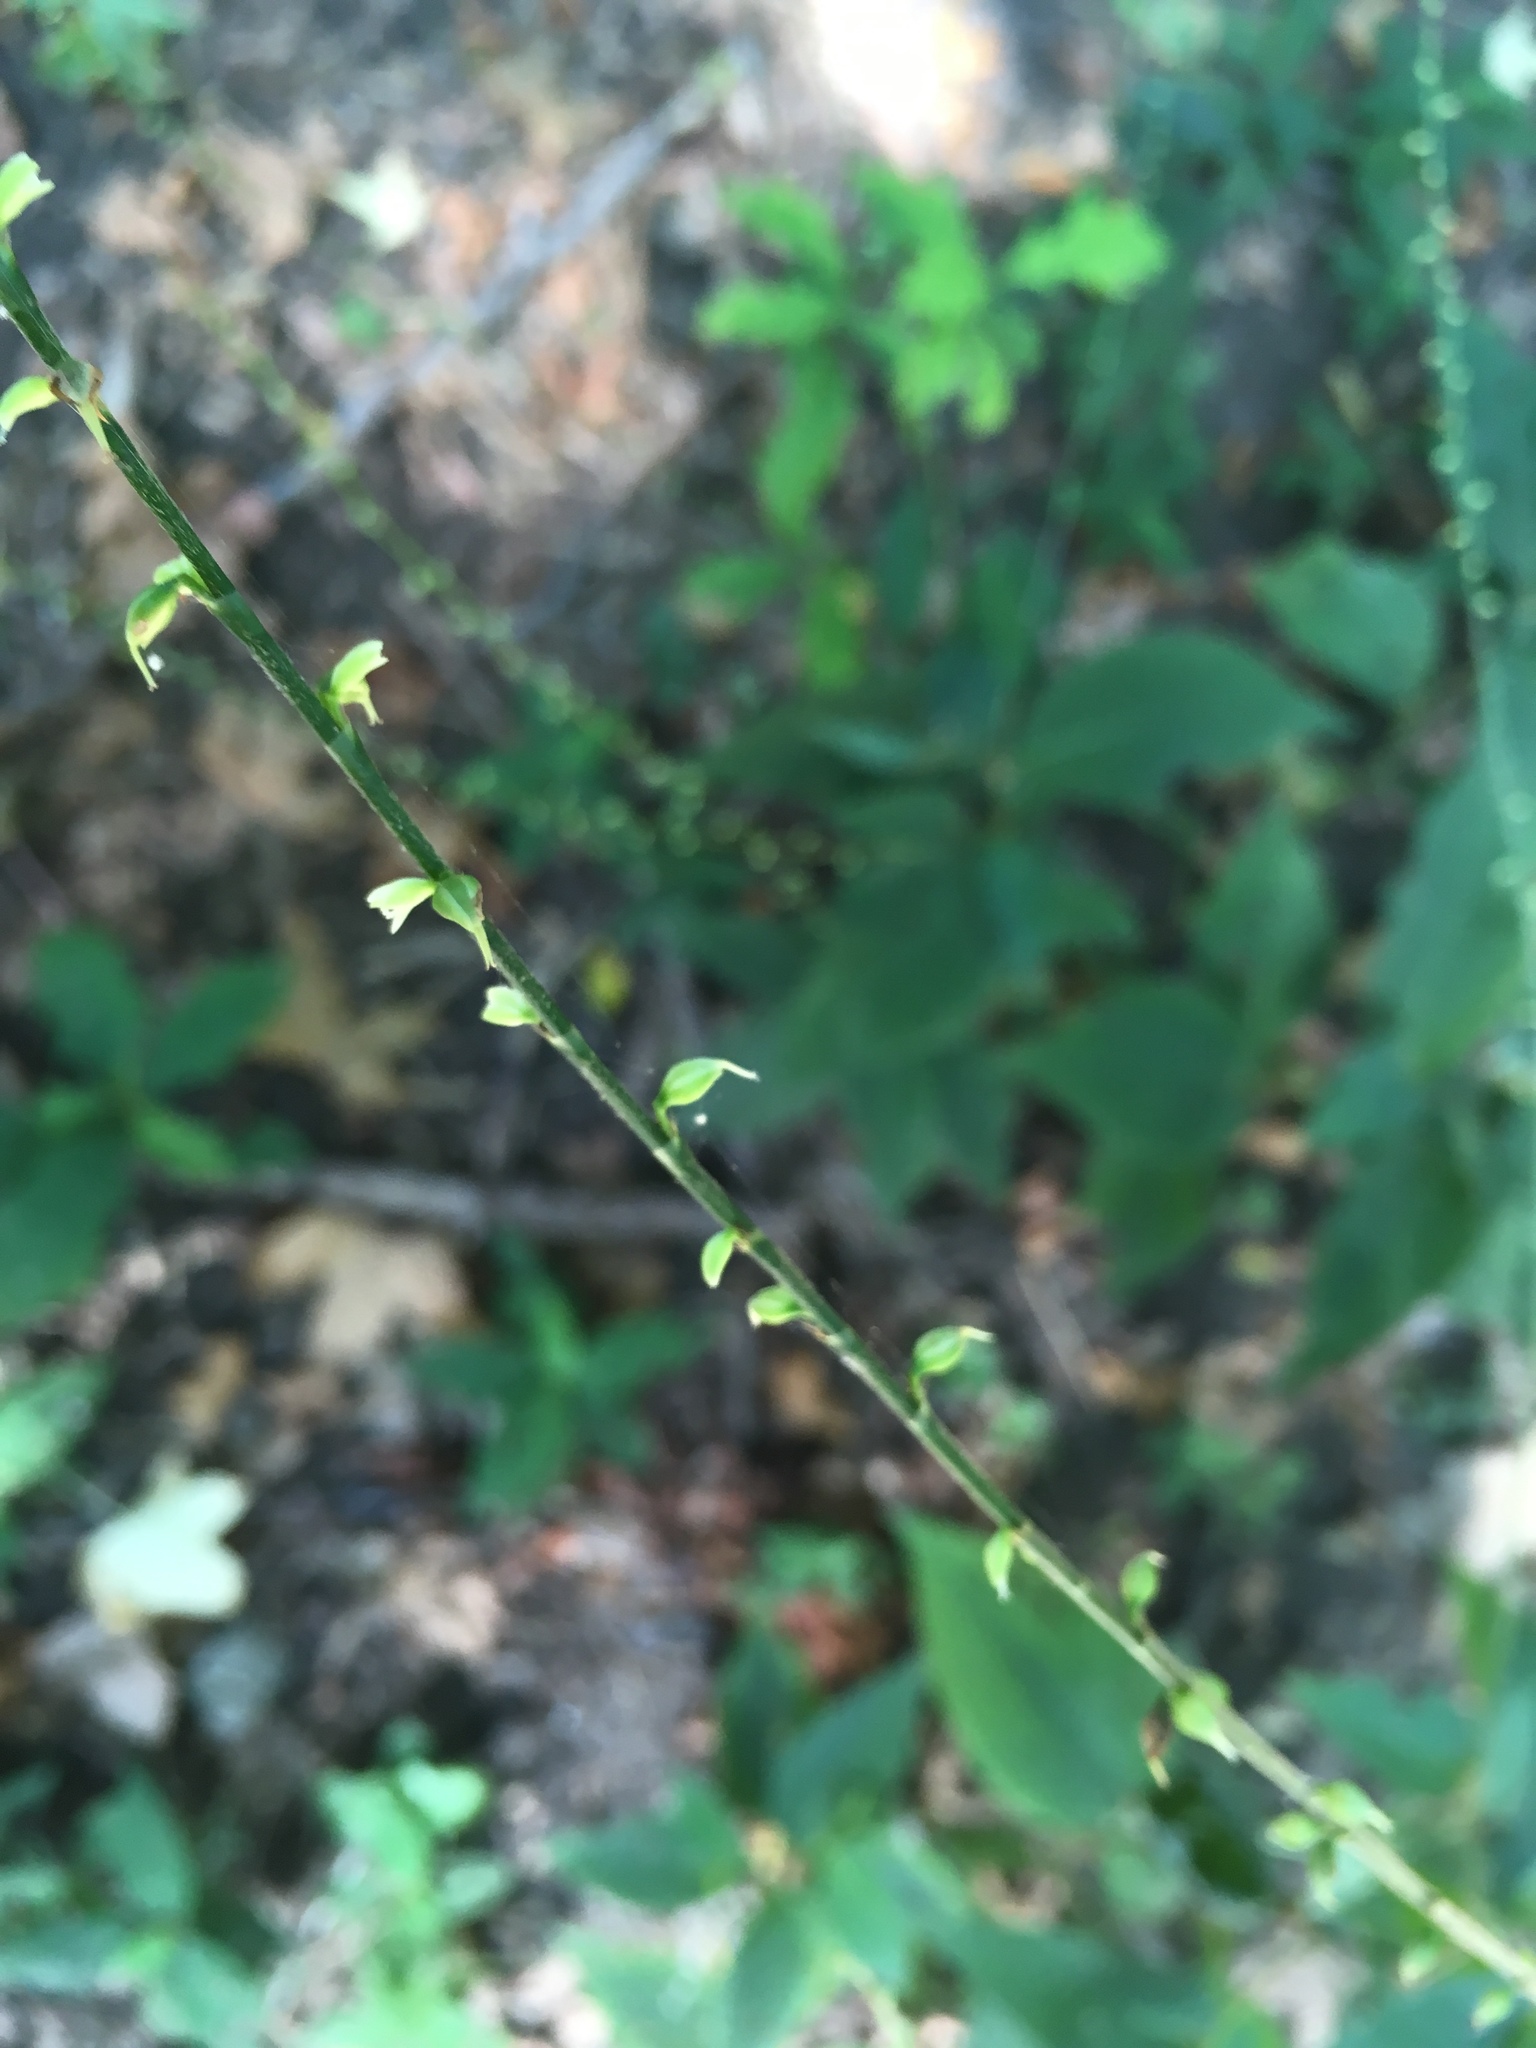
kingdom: Plantae
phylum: Tracheophyta
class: Magnoliopsida
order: Caryophyllales
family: Polygonaceae
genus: Persicaria
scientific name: Persicaria virginiana
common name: Jumpseed
